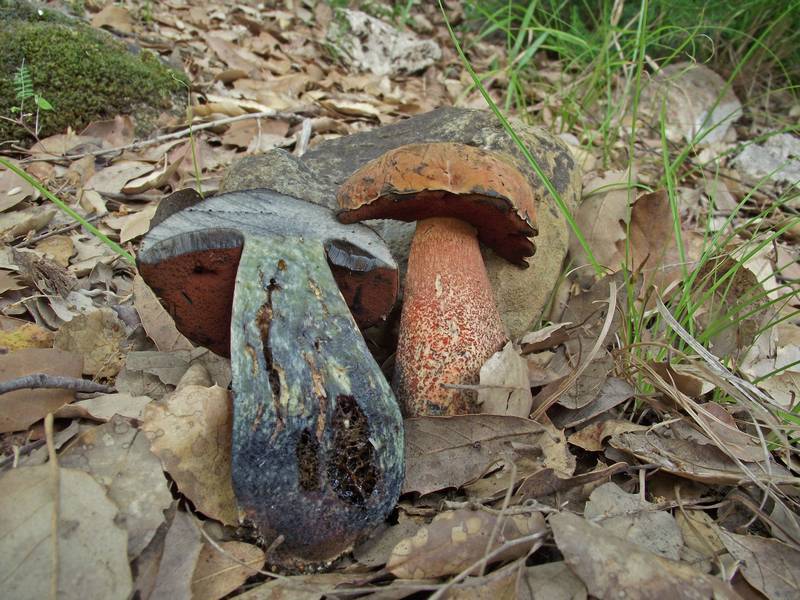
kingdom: Fungi
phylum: Basidiomycota
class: Agaricomycetes
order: Boletales
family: Boletaceae
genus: Suillellus
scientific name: Suillellus mendax
